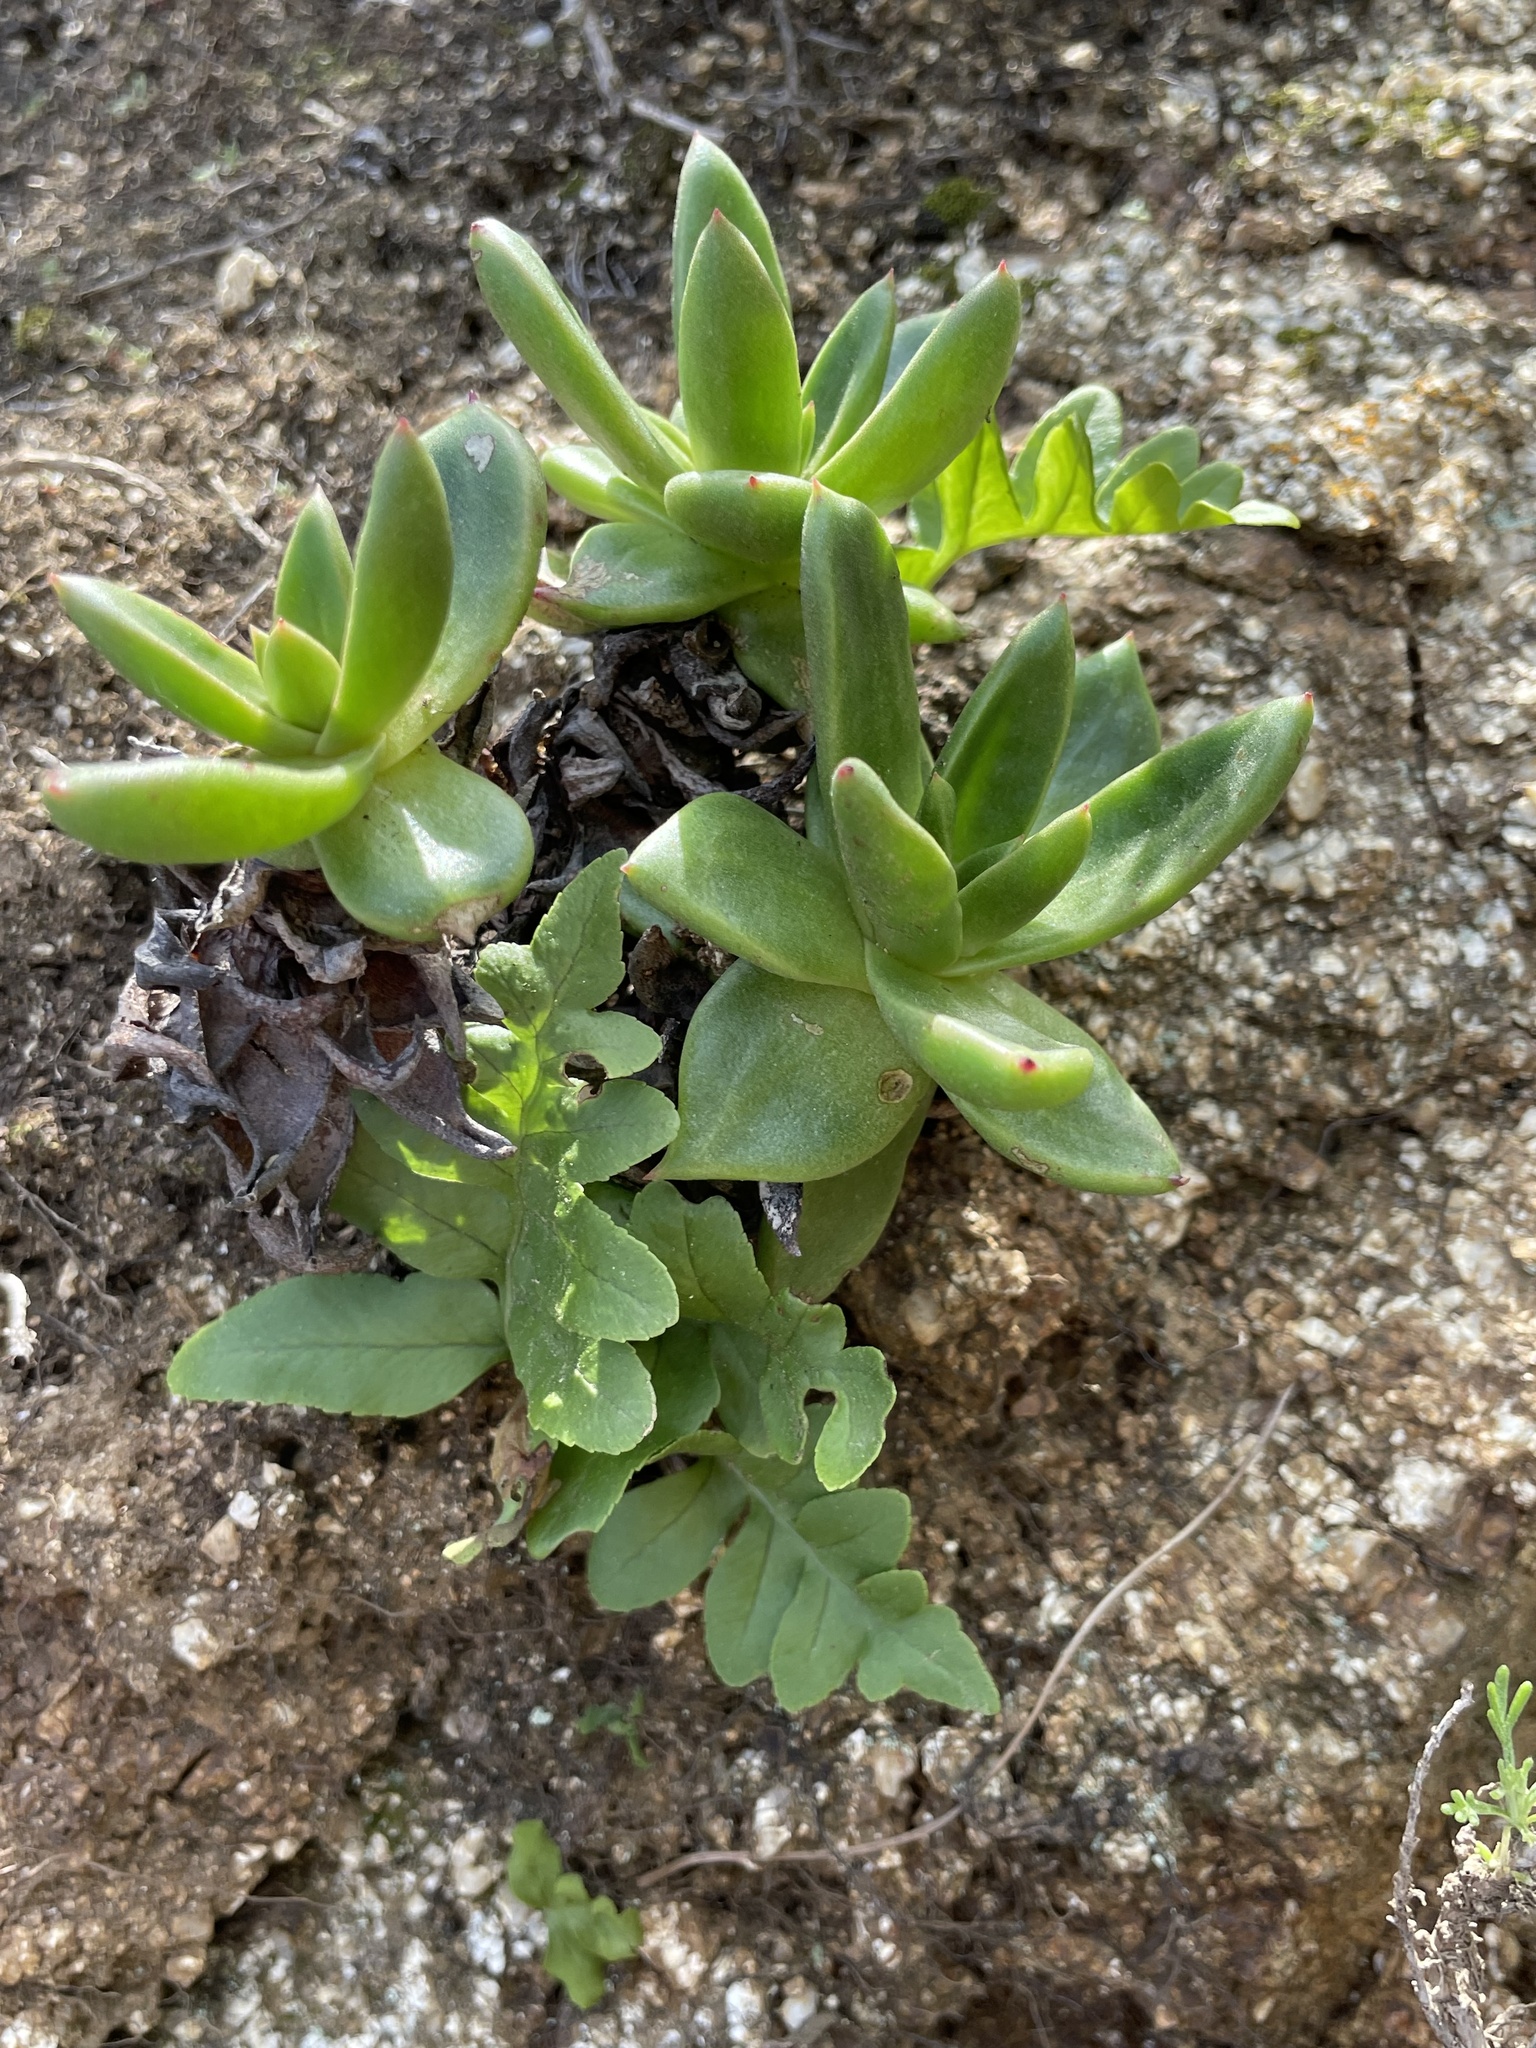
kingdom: Plantae
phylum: Tracheophyta
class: Magnoliopsida
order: Saxifragales
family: Crassulaceae
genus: Dudleya
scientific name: Dudleya caespitosa
